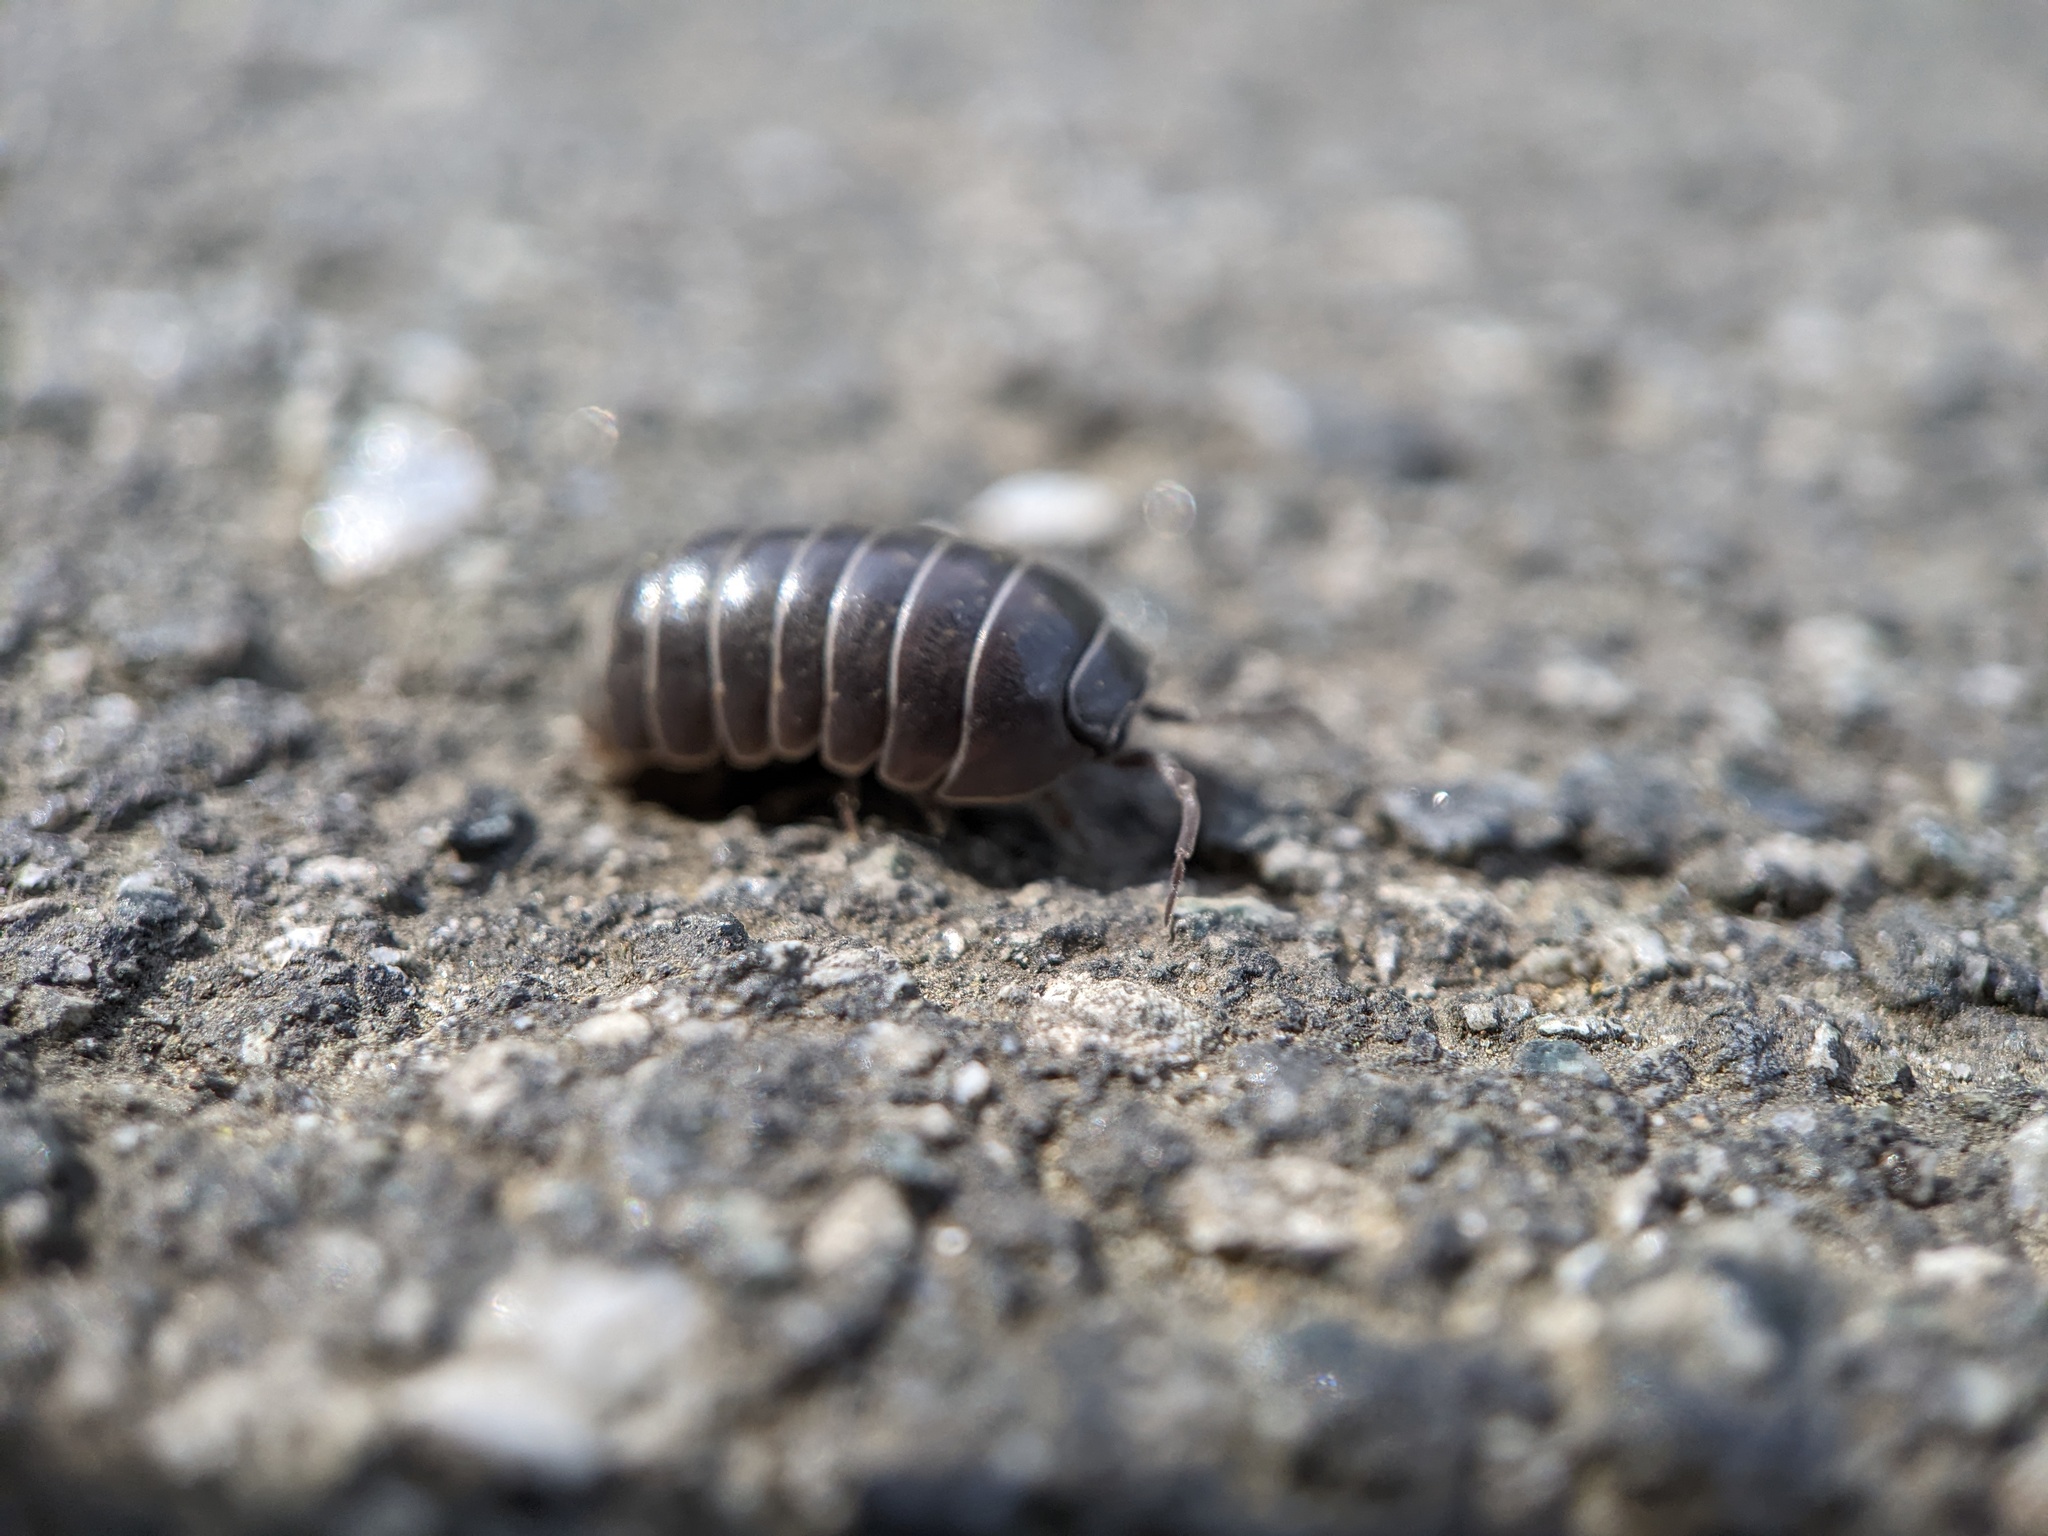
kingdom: Animalia
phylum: Arthropoda
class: Malacostraca
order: Isopoda
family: Armadillidiidae
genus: Armadillidium
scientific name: Armadillidium vulgare
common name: Common pill woodlouse
